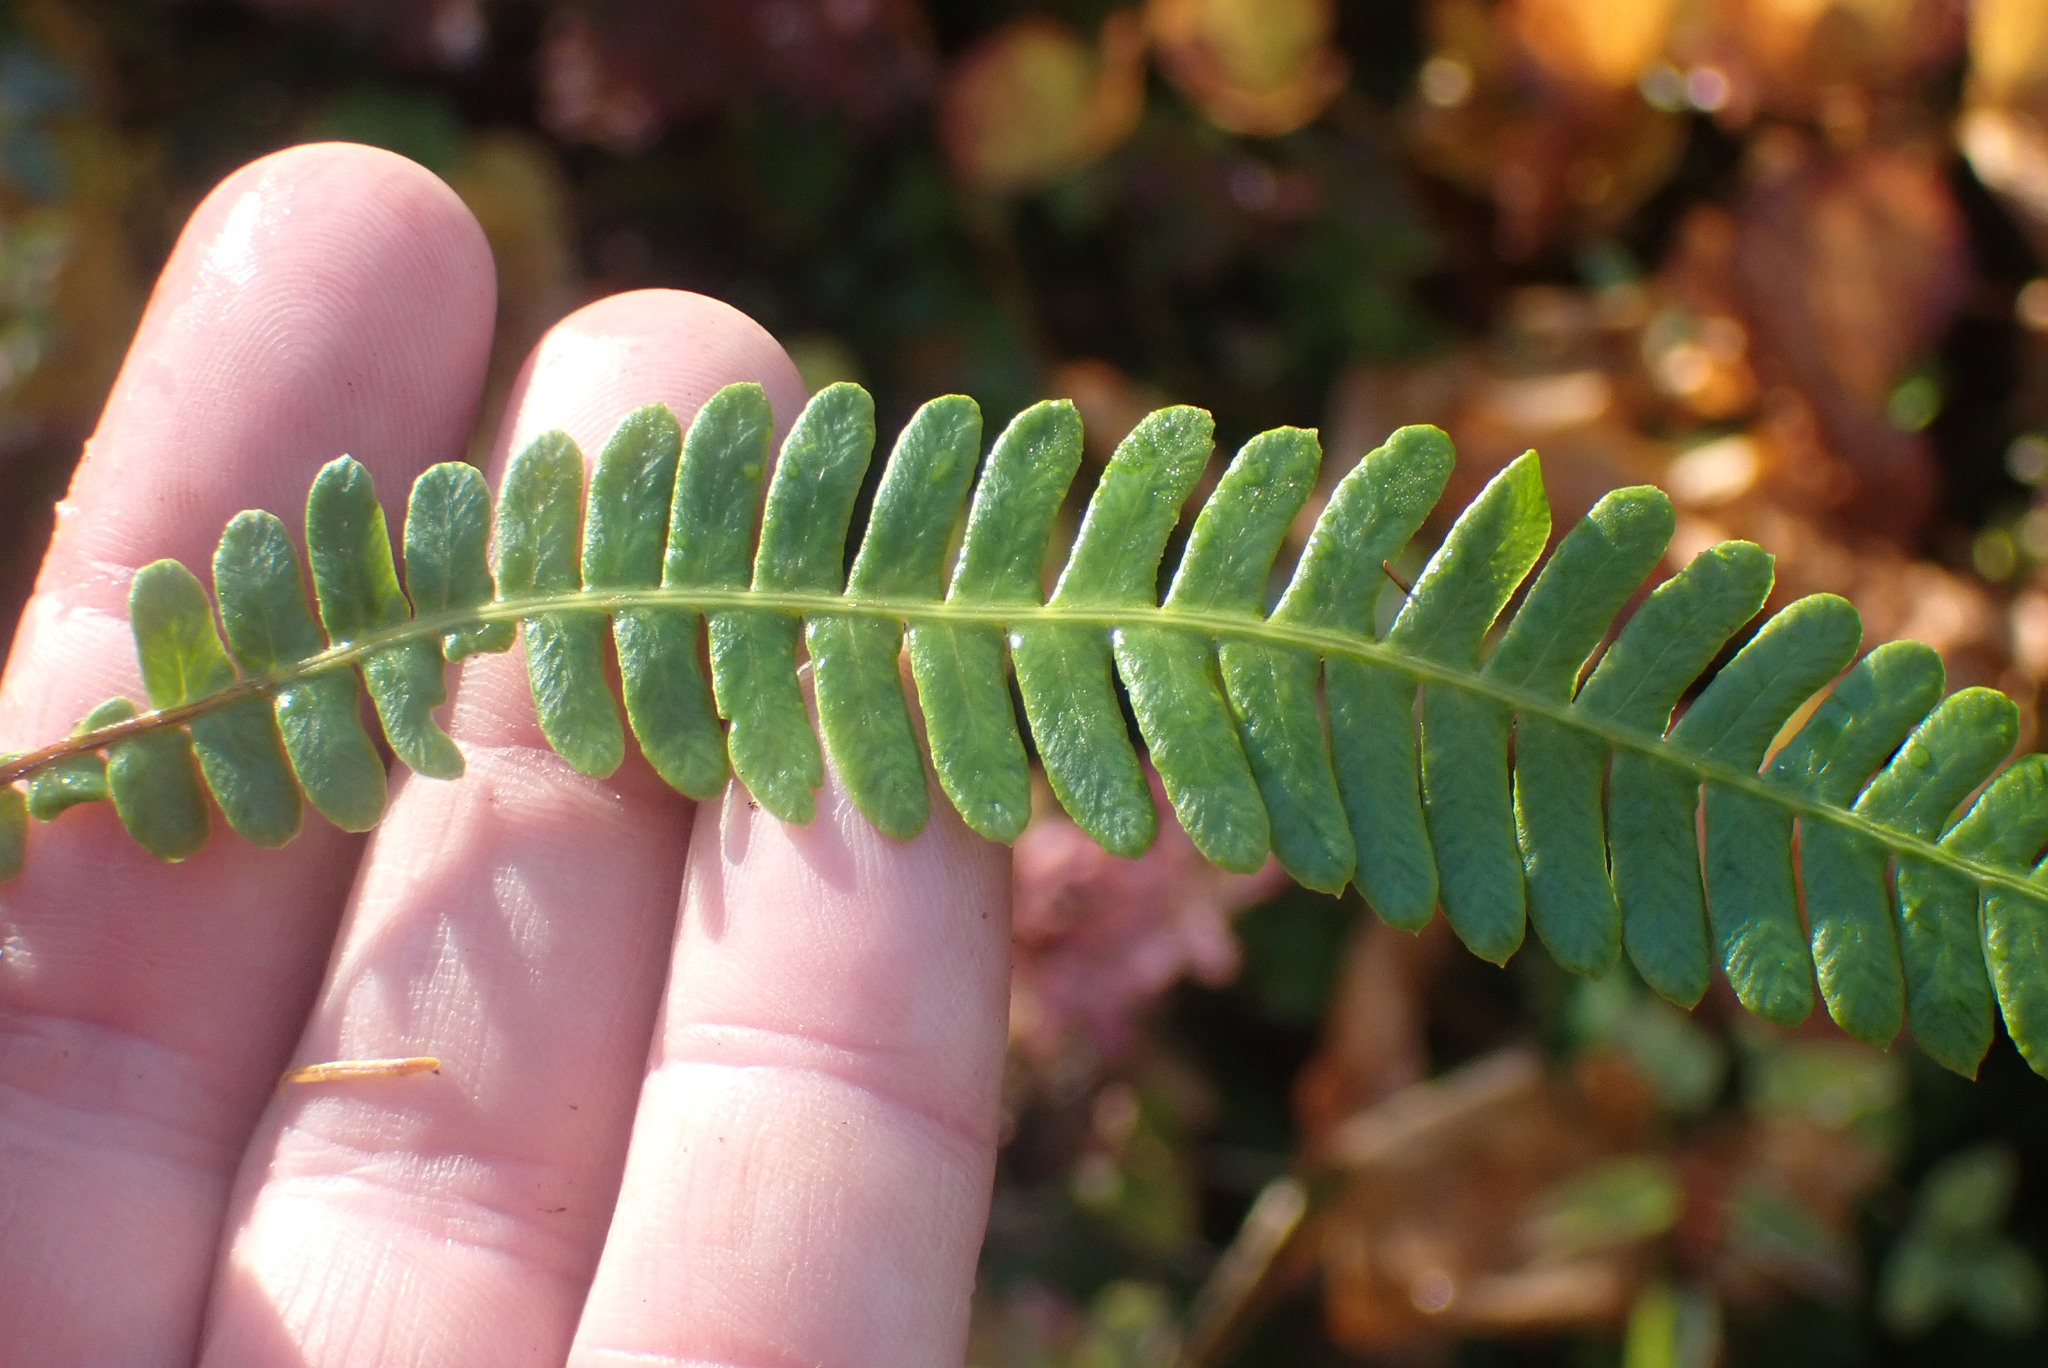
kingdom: Plantae
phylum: Tracheophyta
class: Polypodiopsida
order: Polypodiales
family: Blechnaceae
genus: Struthiopteris
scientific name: Struthiopteris spicant
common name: Deer fern
